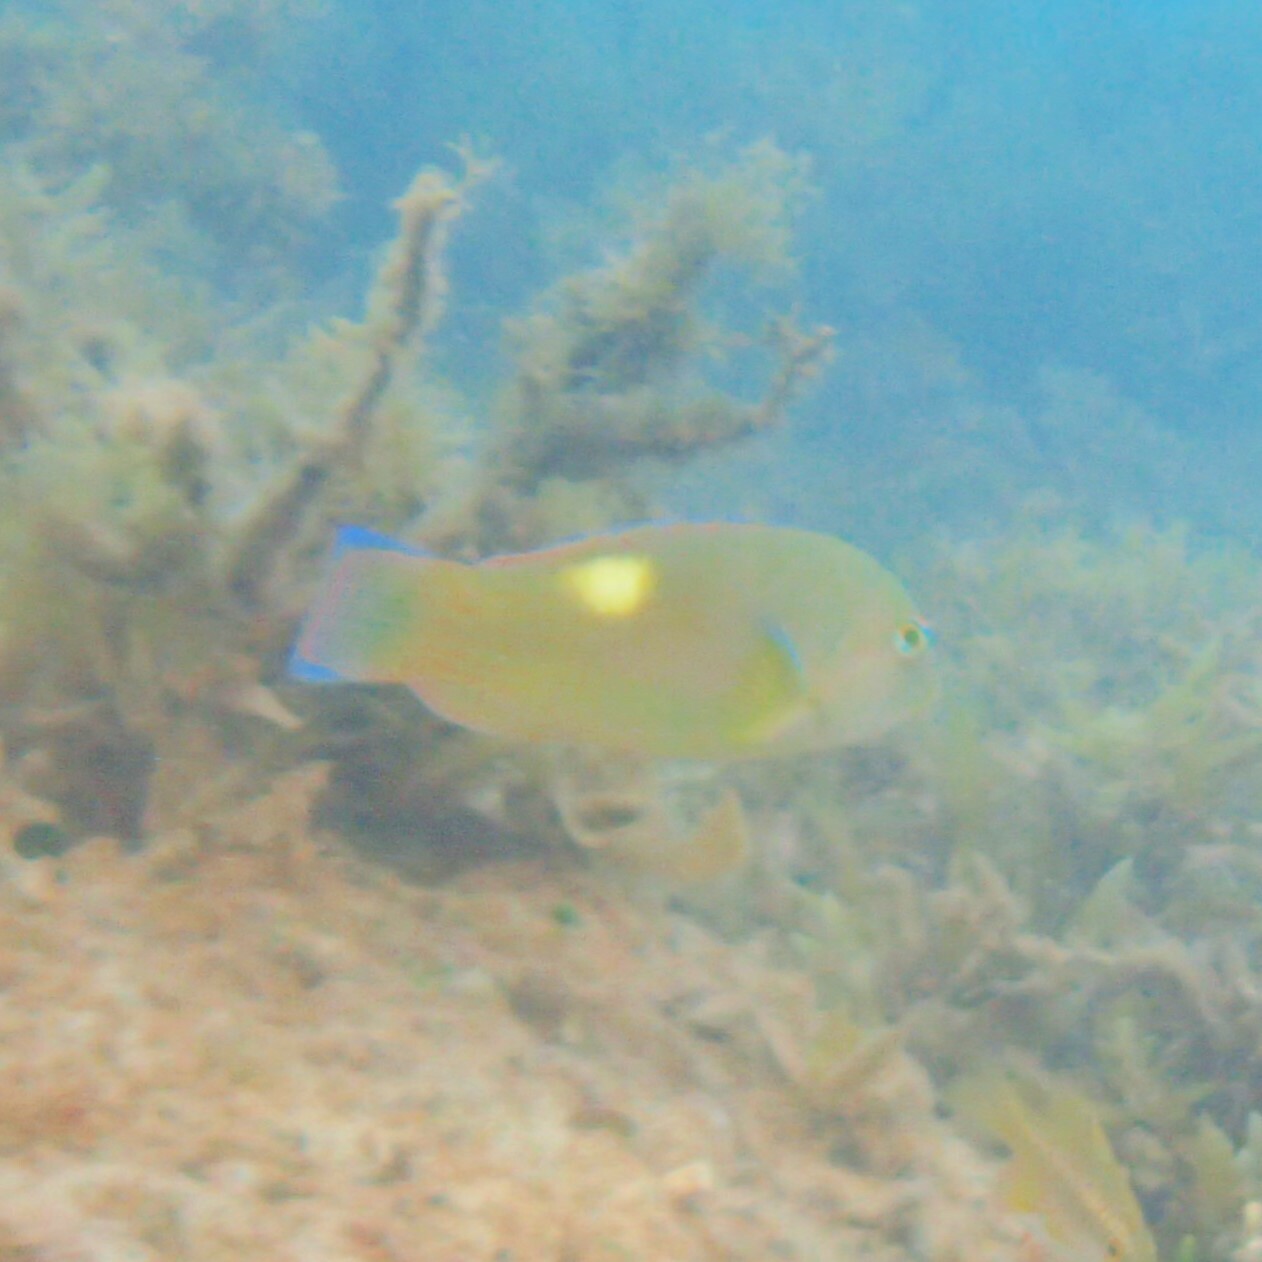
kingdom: Animalia
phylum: Chordata
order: Perciformes
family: Labridae
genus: Choerodon
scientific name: Choerodon cyanodus
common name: Blue tuskfish
